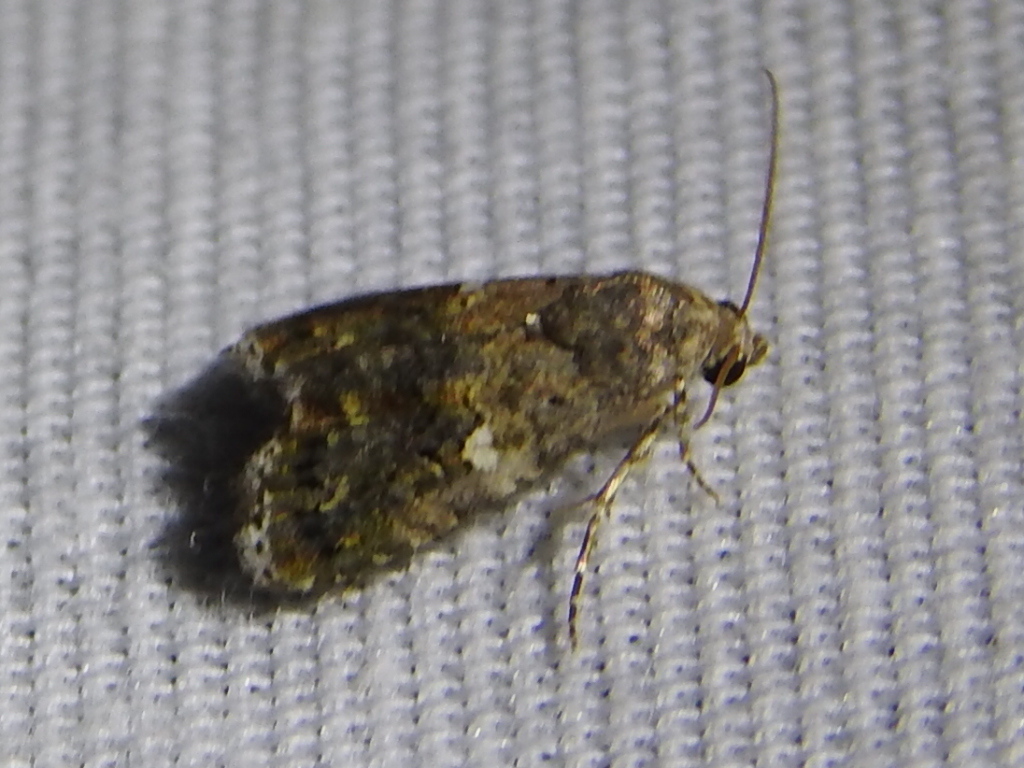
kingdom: Animalia
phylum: Arthropoda
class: Insecta
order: Lepidoptera
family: Noctuidae
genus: Tripudia
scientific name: Tripudia luxuriosa
